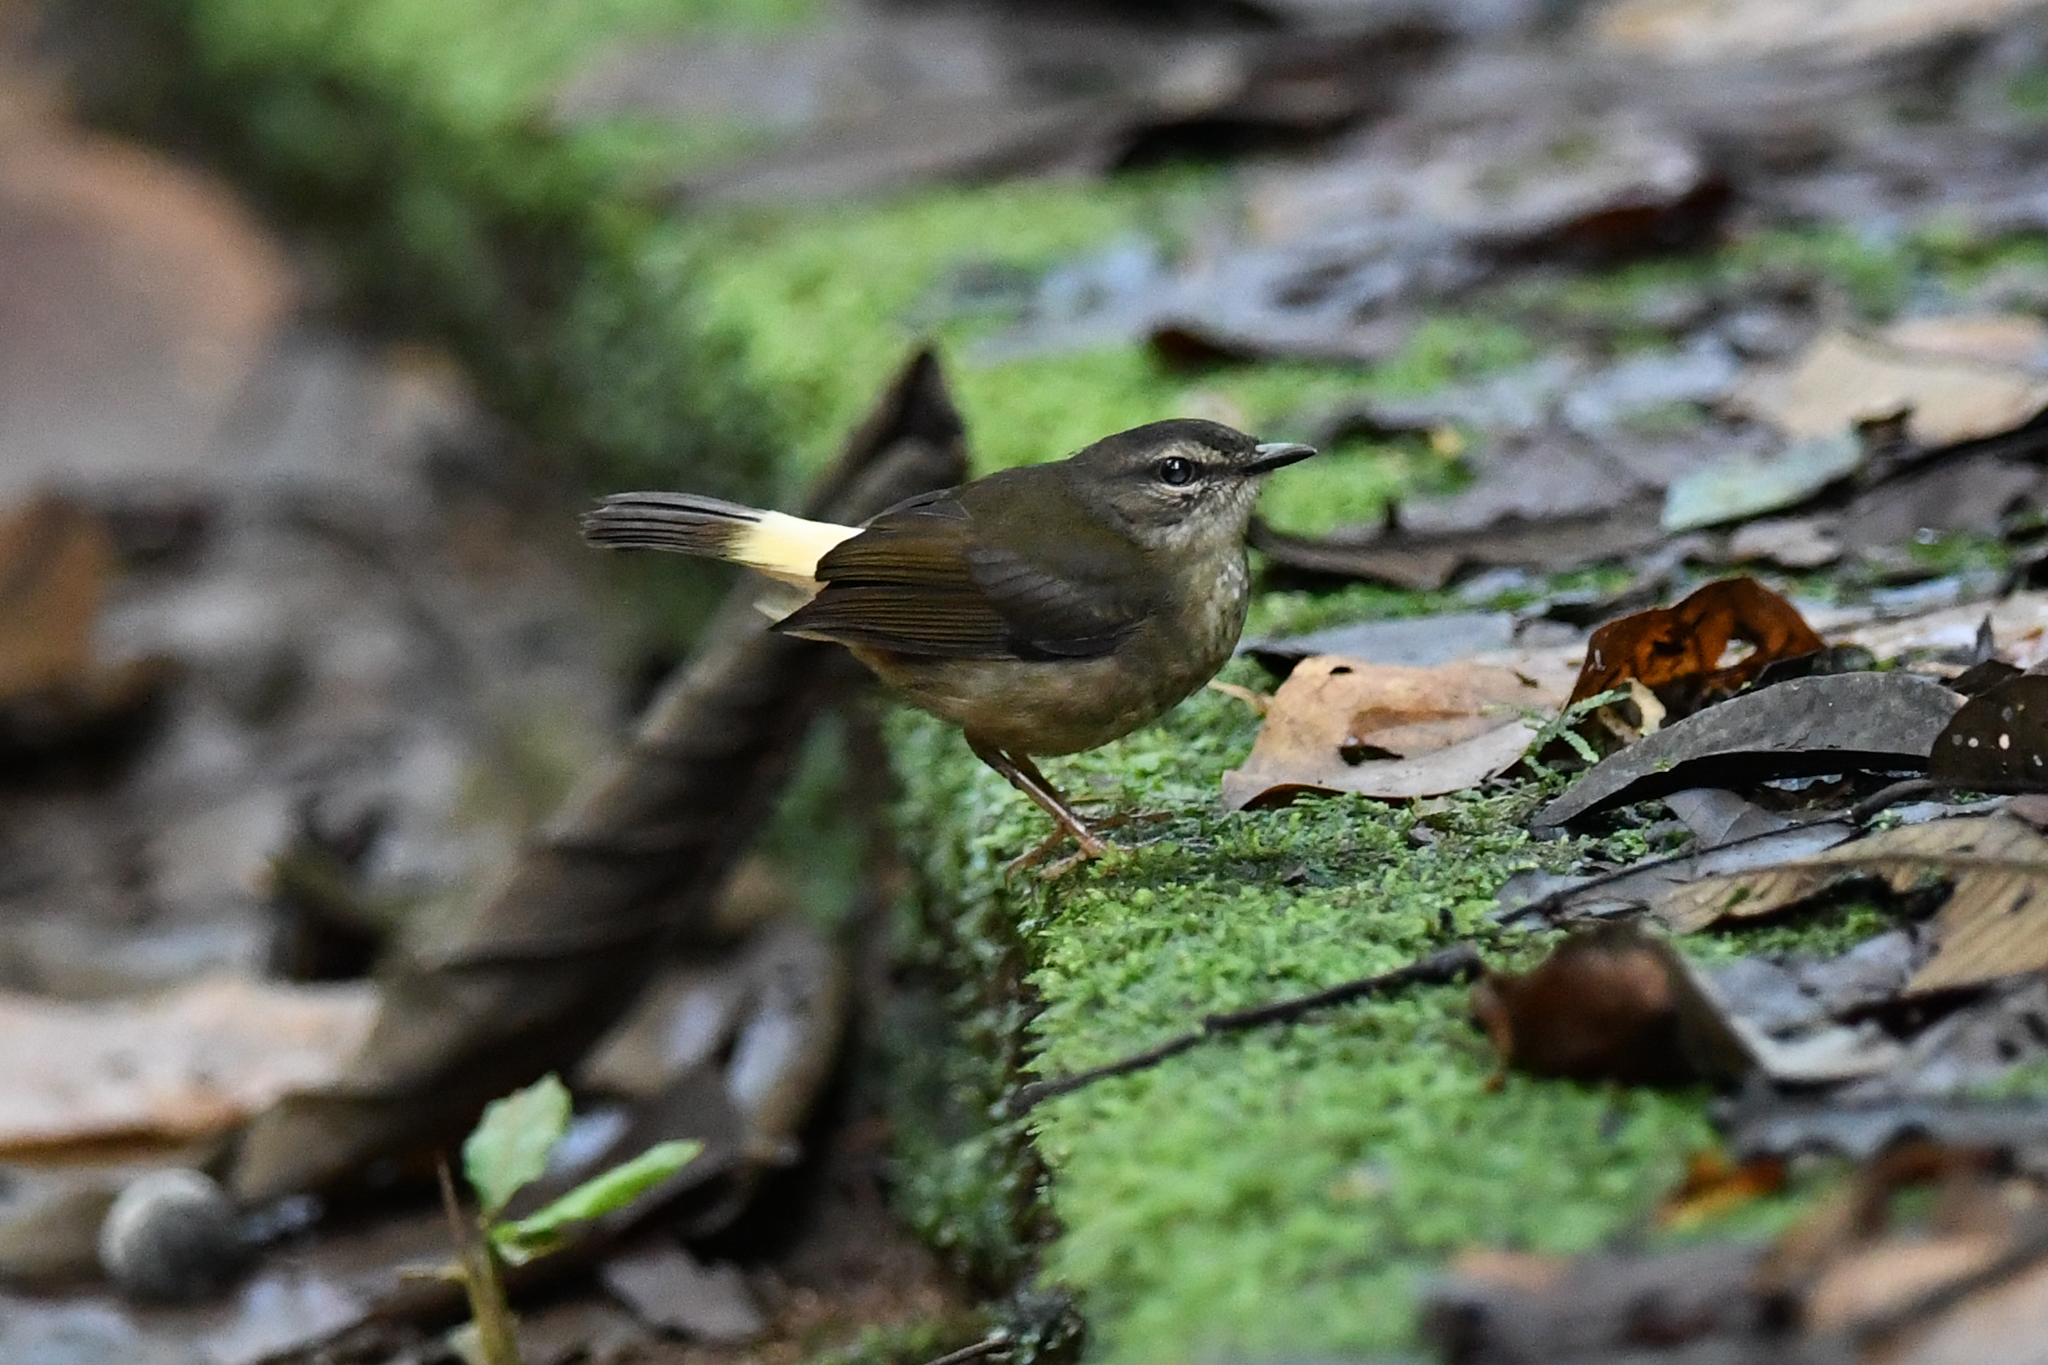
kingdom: Animalia
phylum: Chordata
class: Aves
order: Passeriformes
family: Parulidae
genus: Myiothlypis
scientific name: Myiothlypis fulvicauda
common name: Buff-rumped warbler
